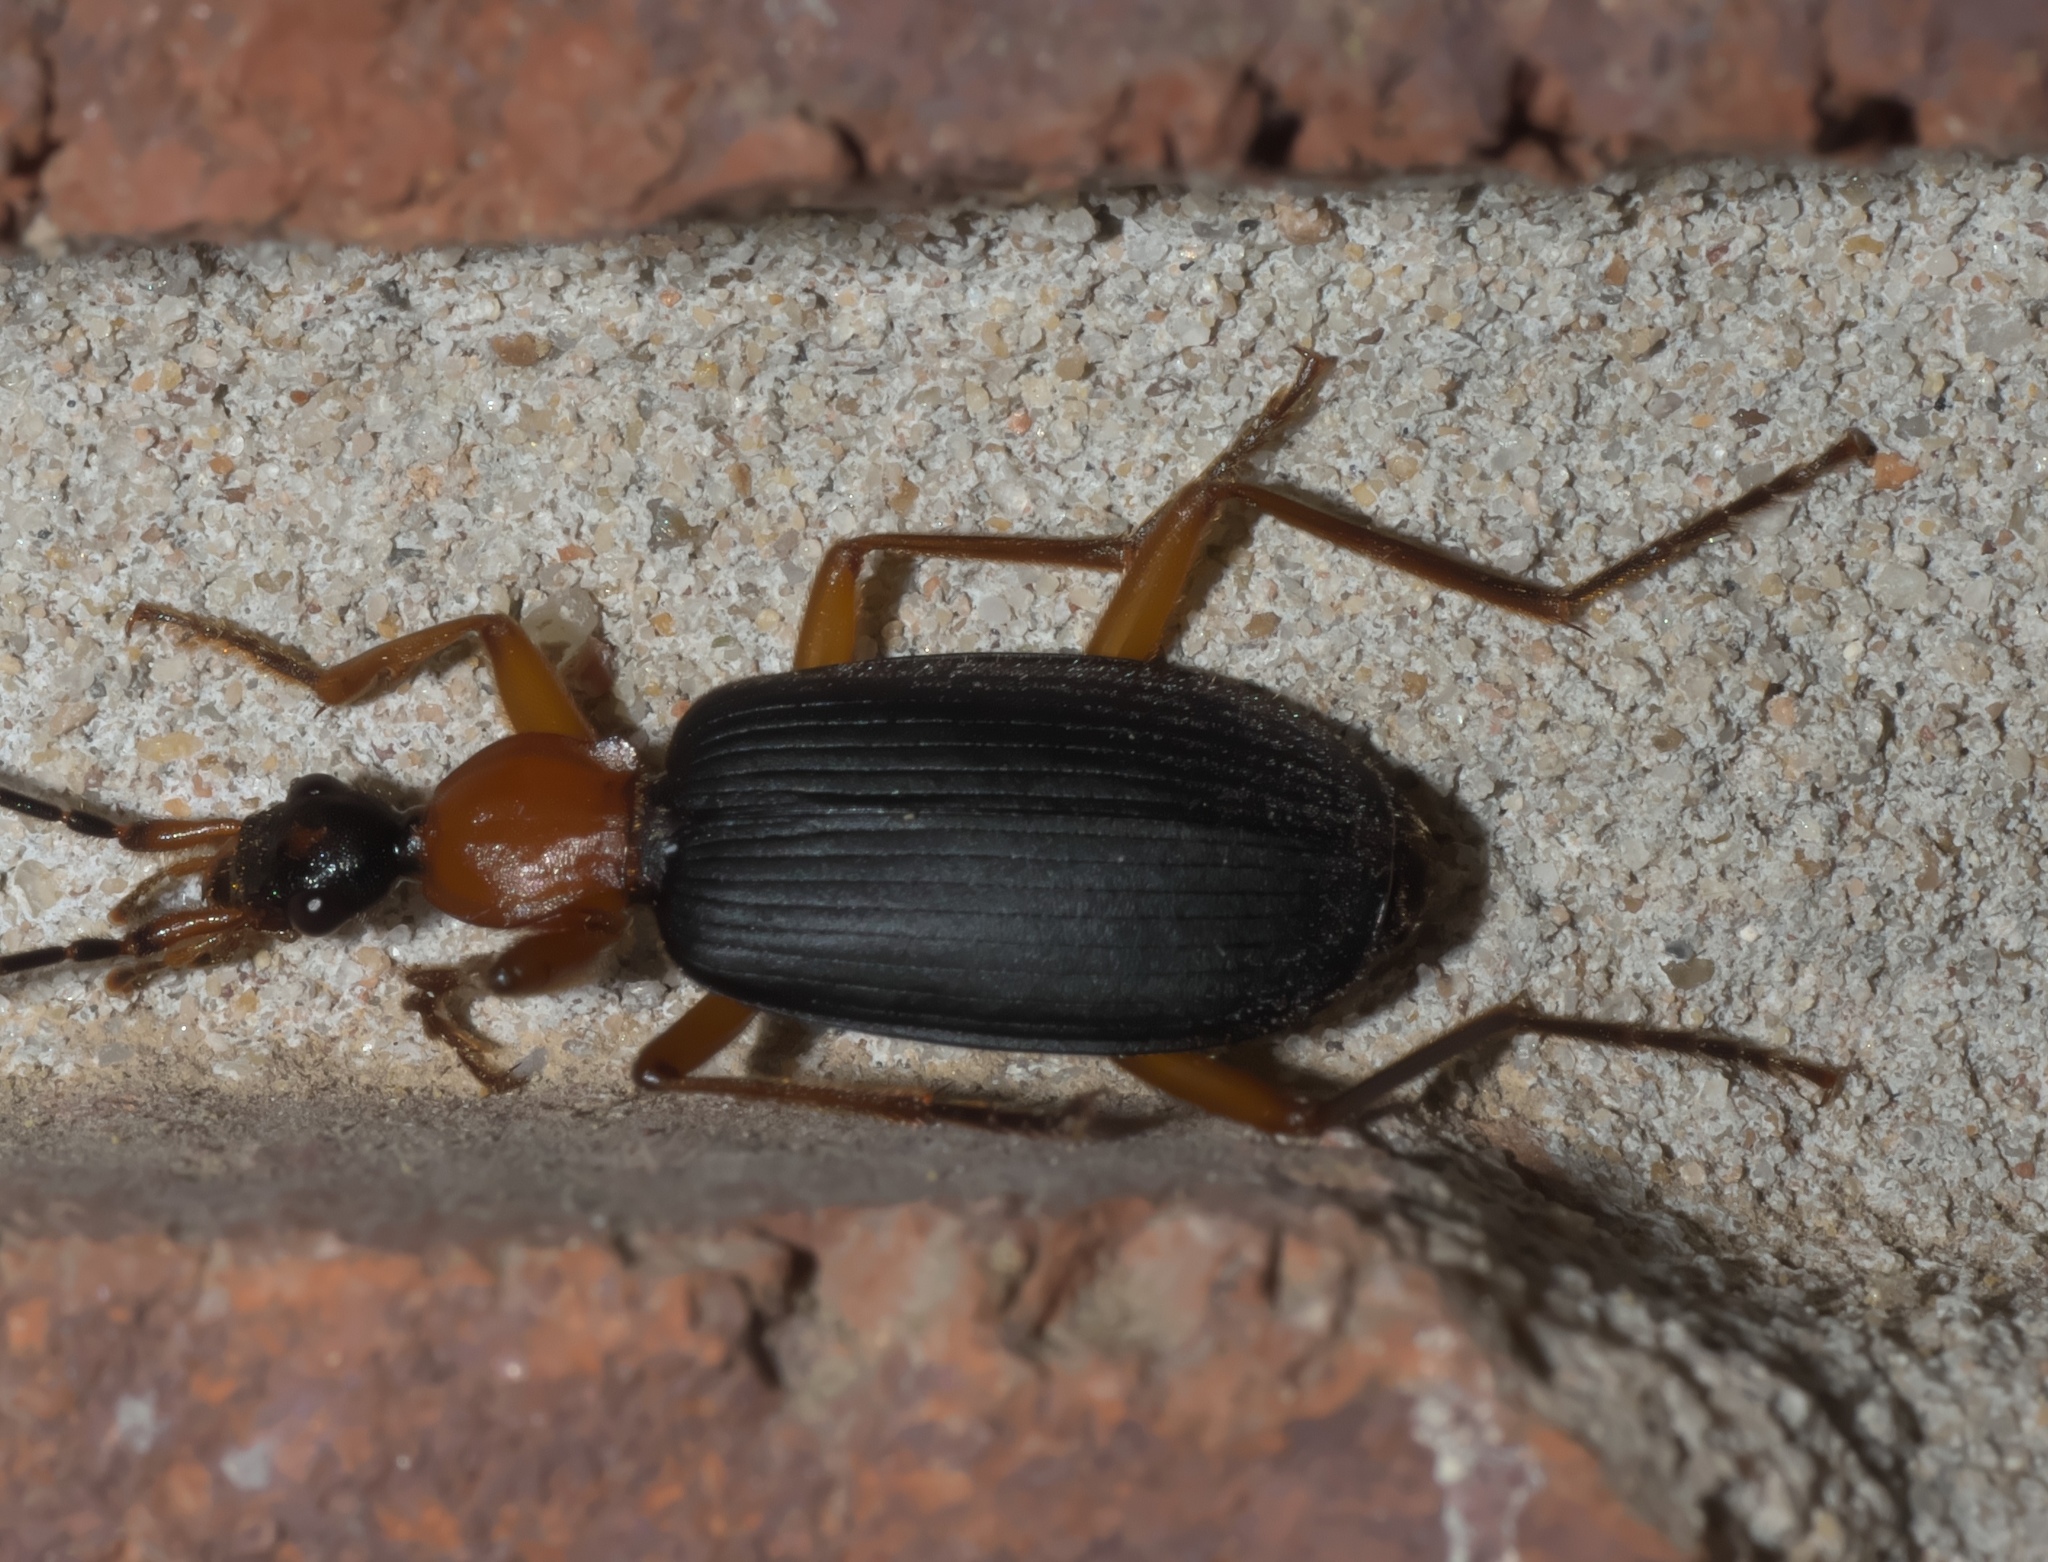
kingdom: Animalia
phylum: Arthropoda
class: Insecta
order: Coleoptera
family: Carabidae
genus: Galerita
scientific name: Galerita janus
